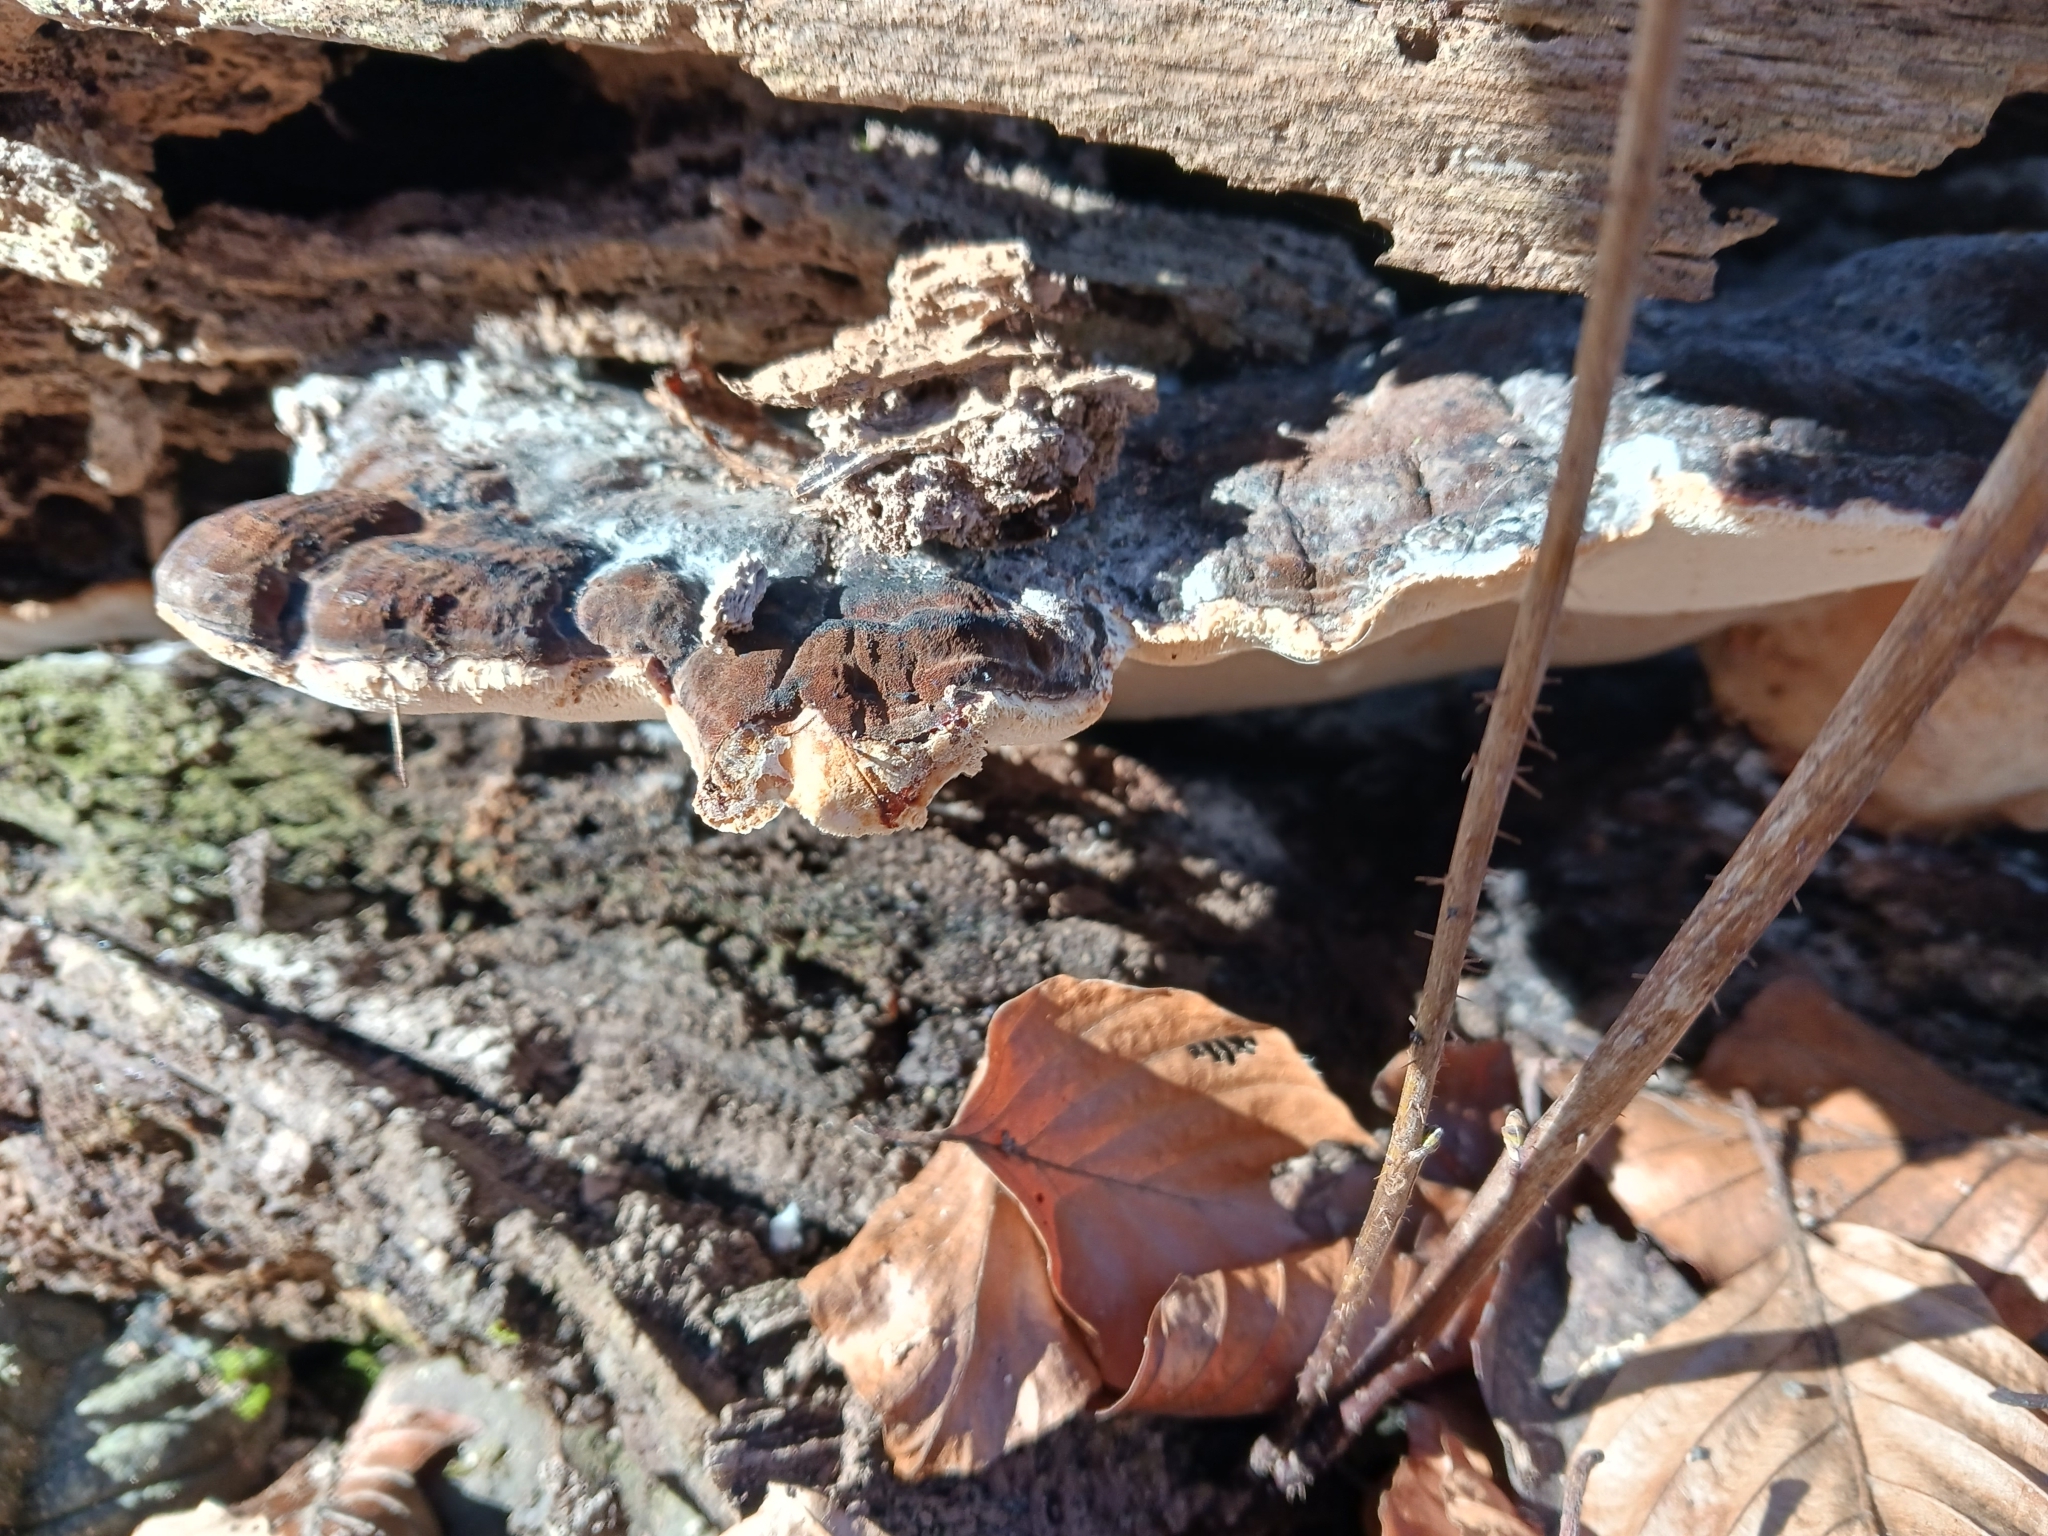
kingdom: Fungi
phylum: Basidiomycota
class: Agaricomycetes
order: Polyporales
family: Ischnodermataceae
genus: Ischnoderma
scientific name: Ischnoderma resinosum
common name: Resinous polypore
